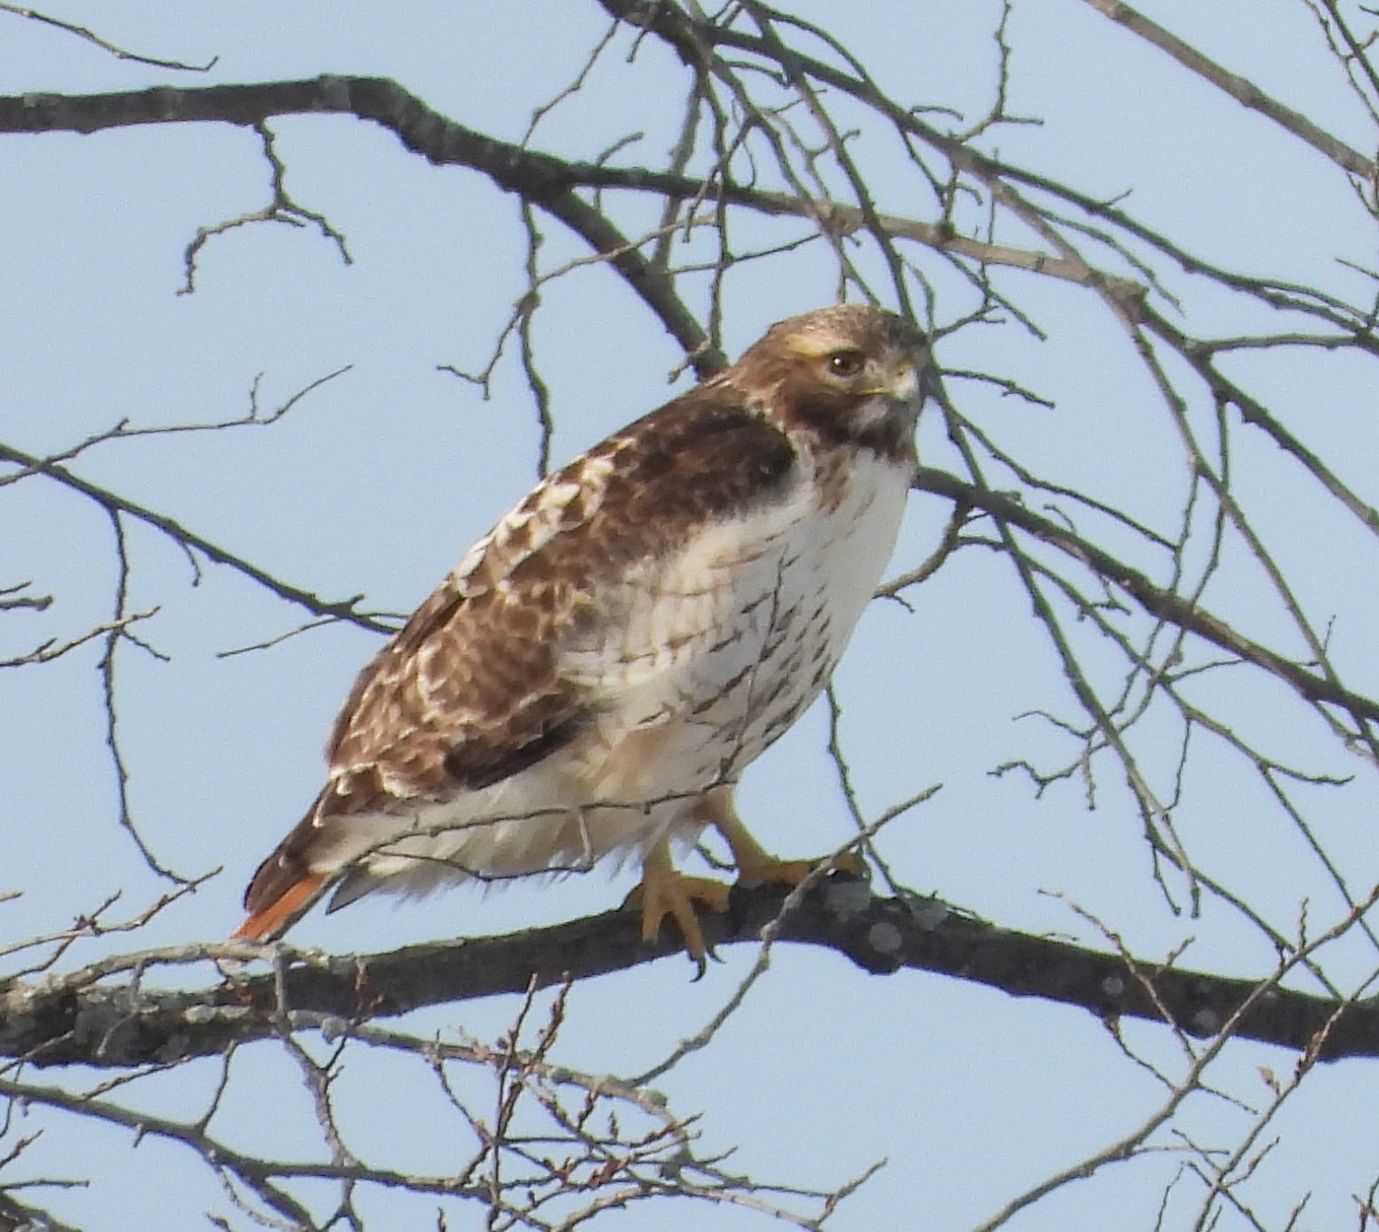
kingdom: Animalia
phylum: Chordata
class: Aves
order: Accipitriformes
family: Accipitridae
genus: Buteo
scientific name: Buteo jamaicensis
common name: Red-tailed hawk
